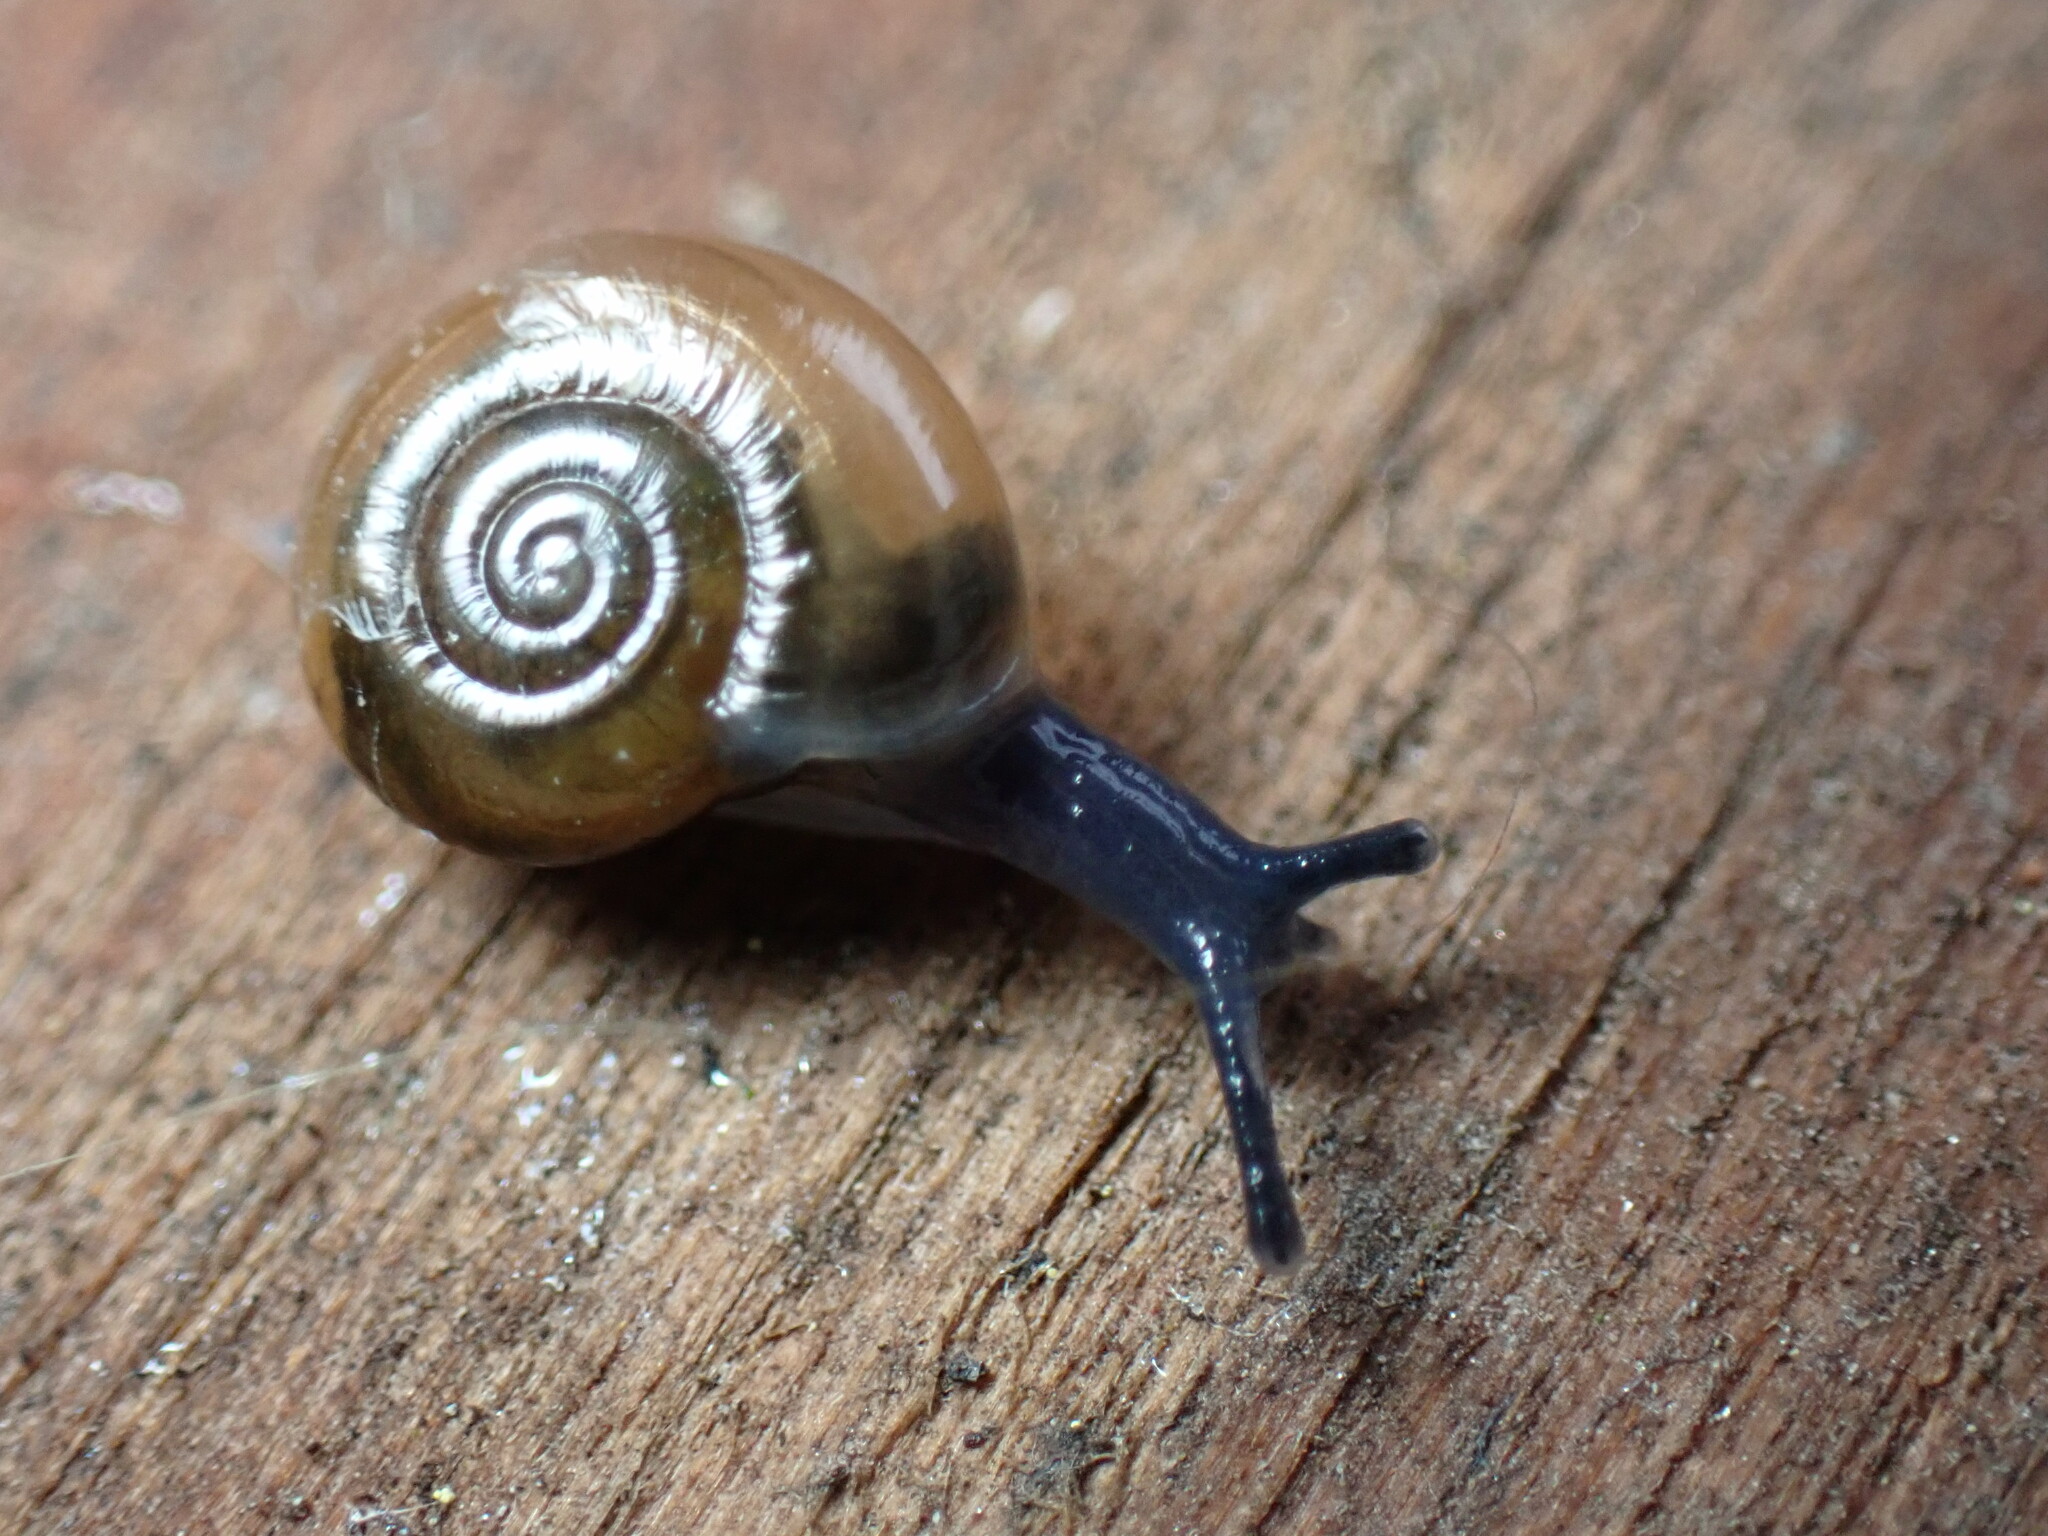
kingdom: Animalia
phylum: Mollusca
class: Gastropoda
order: Stylommatophora
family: Oxychilidae
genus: Oxychilus
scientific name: Oxychilus alliarius
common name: Garlic glass-snail
